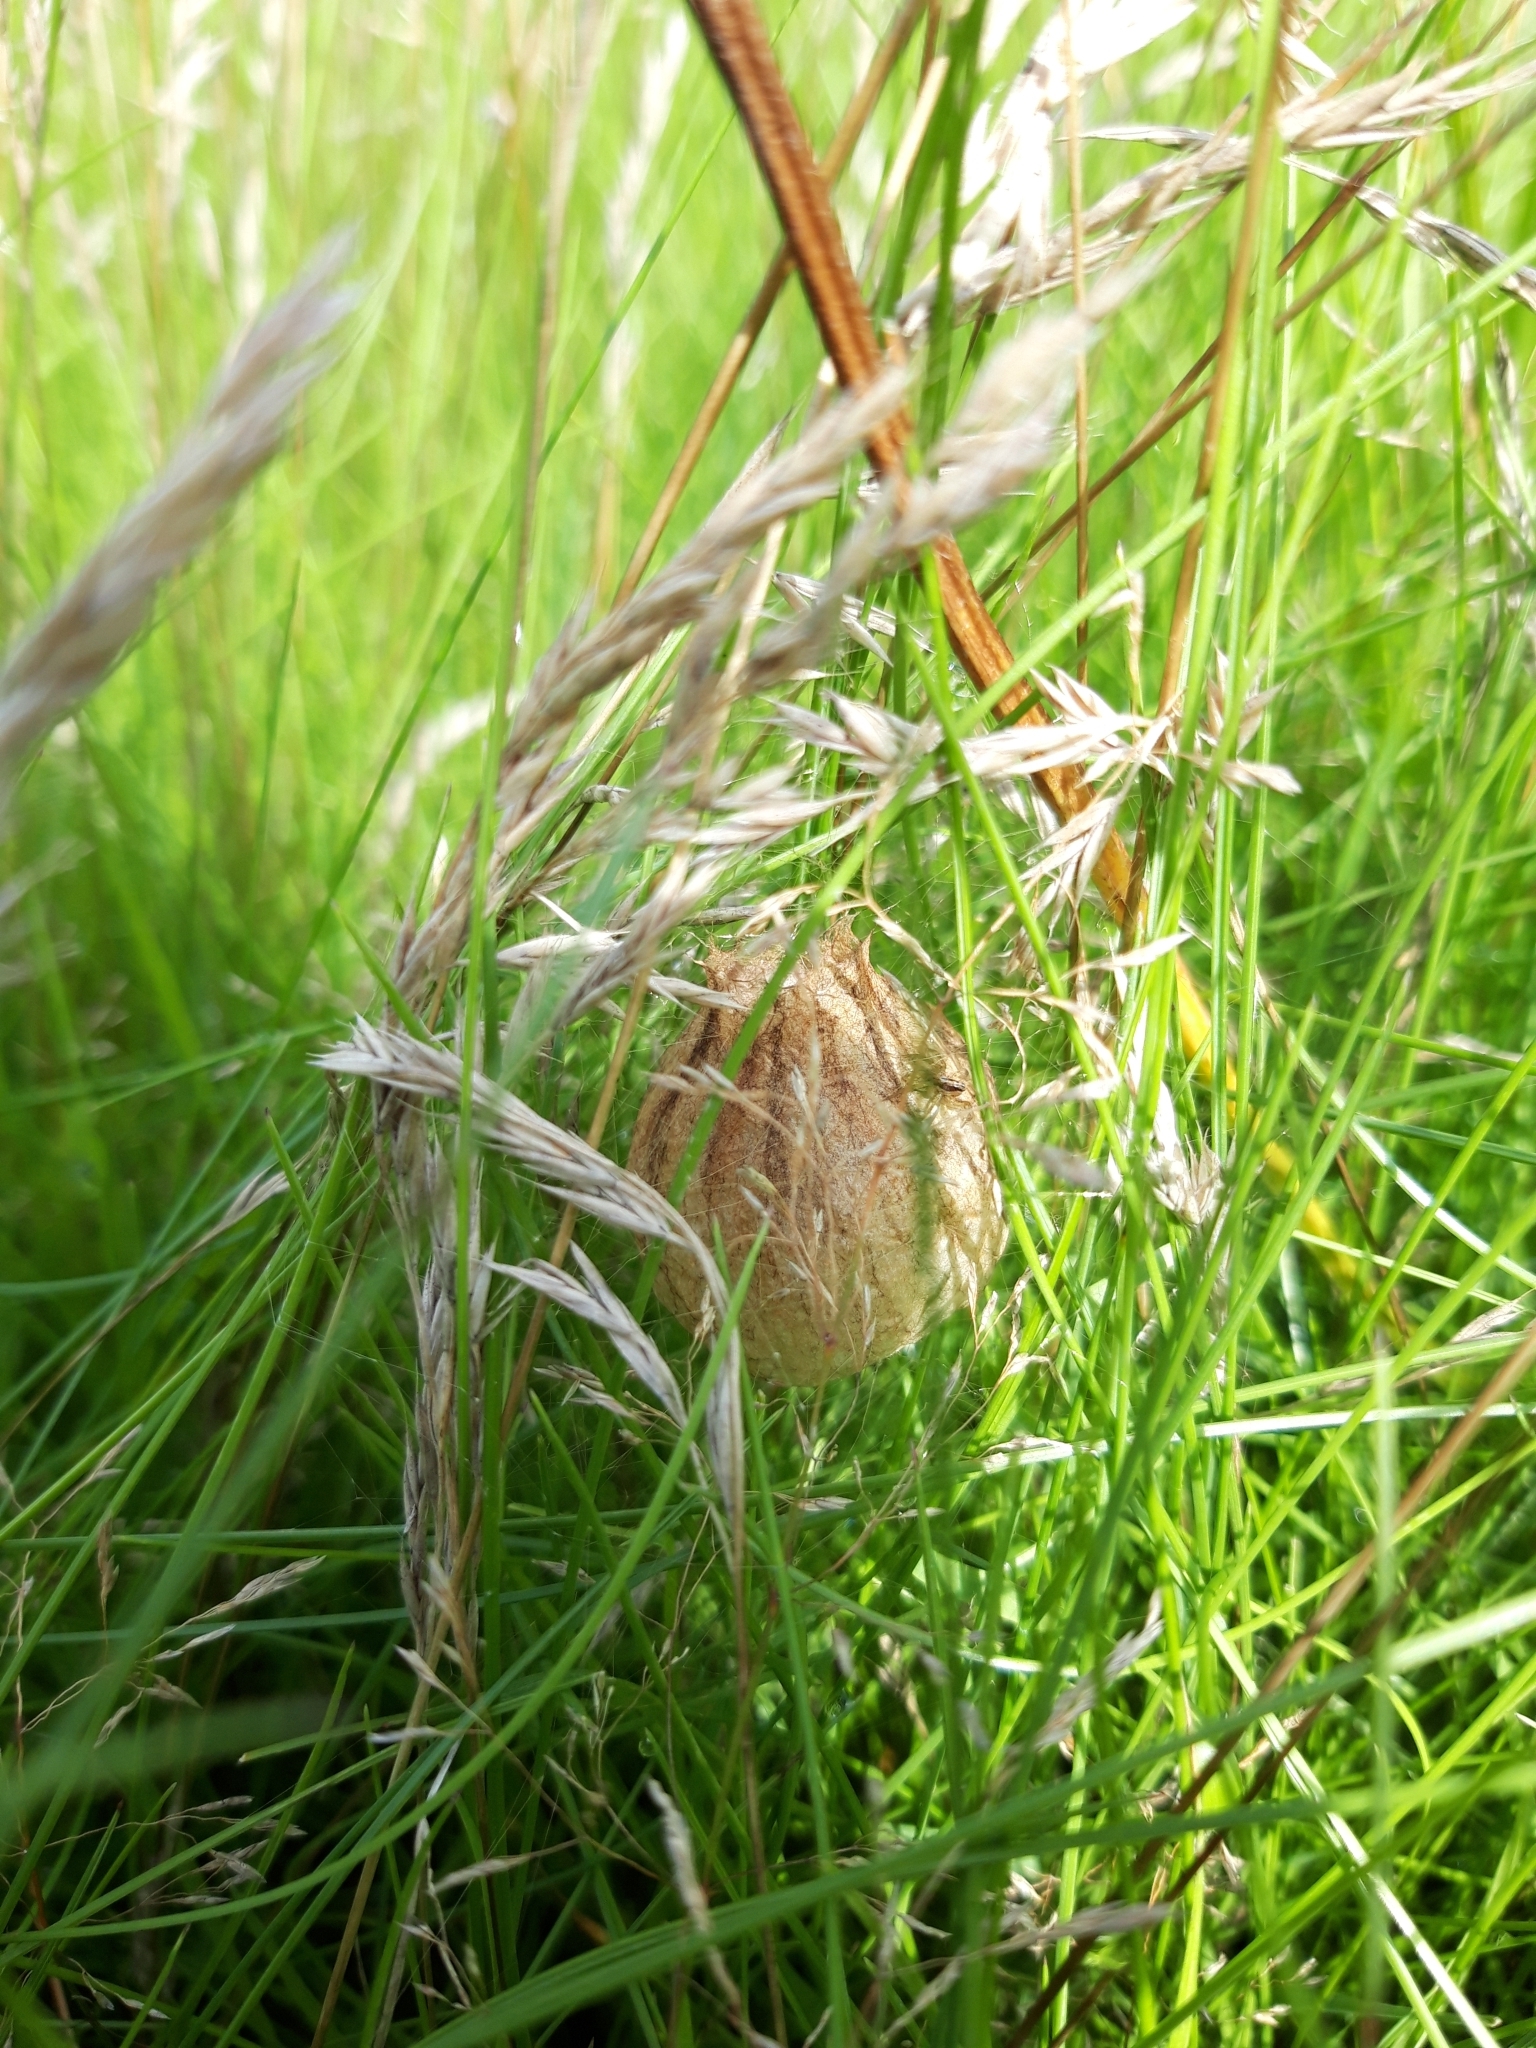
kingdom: Animalia
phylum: Arthropoda
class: Arachnida
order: Araneae
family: Araneidae
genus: Argiope
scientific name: Argiope bruennichi
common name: Wasp spider
